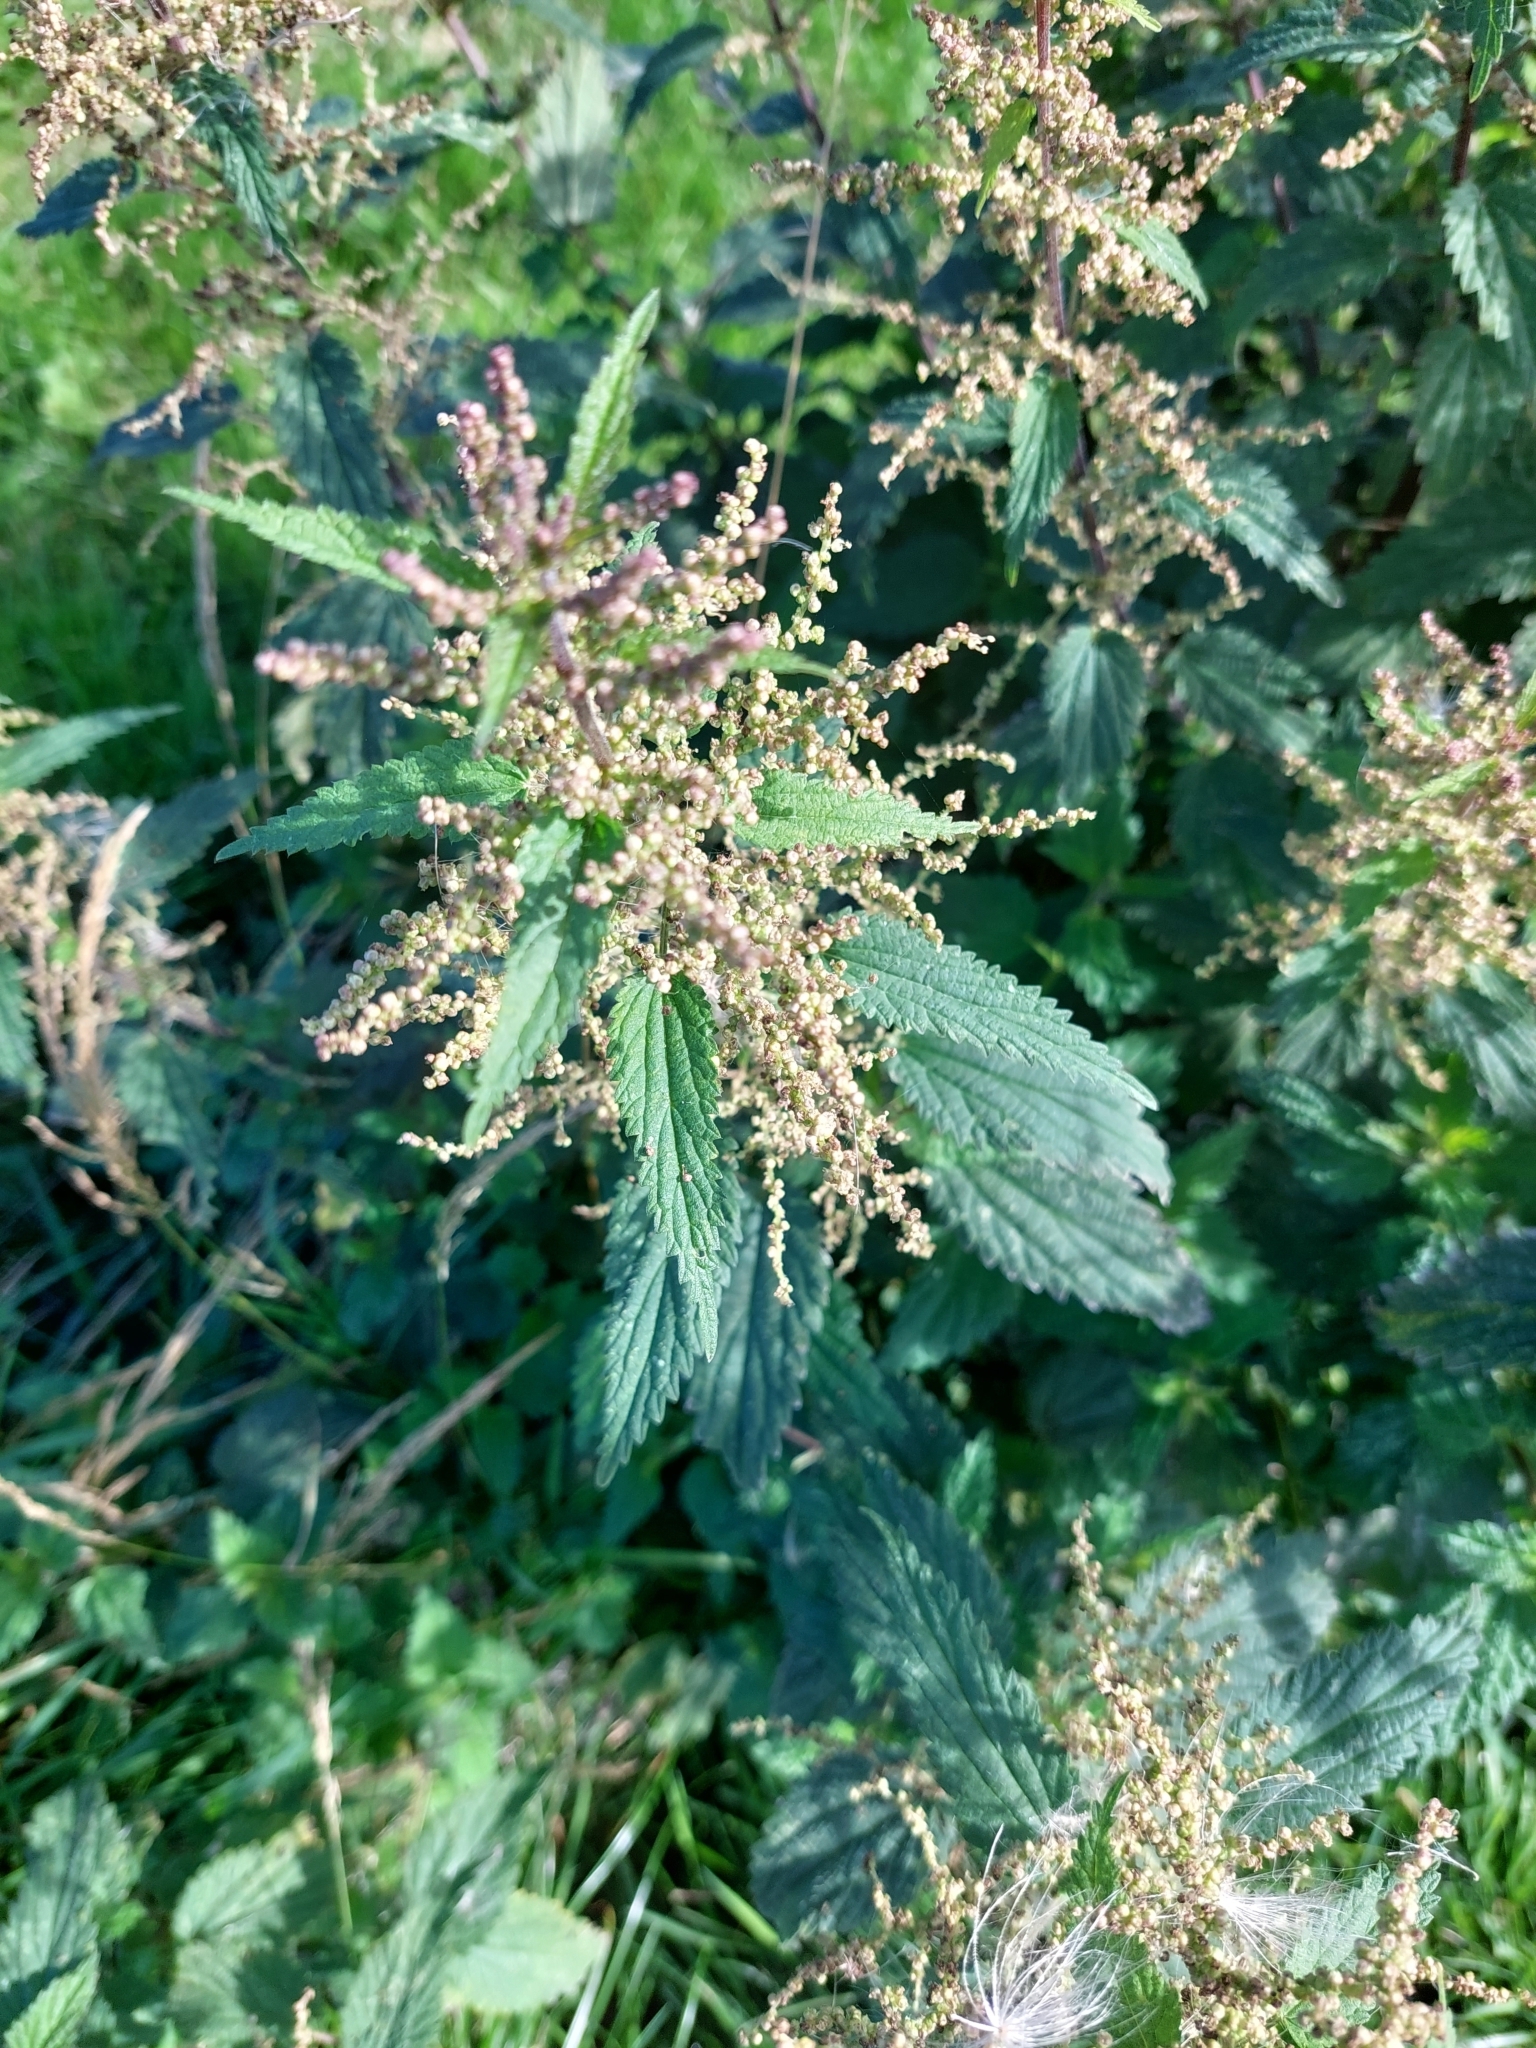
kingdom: Plantae
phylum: Tracheophyta
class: Magnoliopsida
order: Rosales
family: Urticaceae
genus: Urtica
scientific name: Urtica dioica
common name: Common nettle
